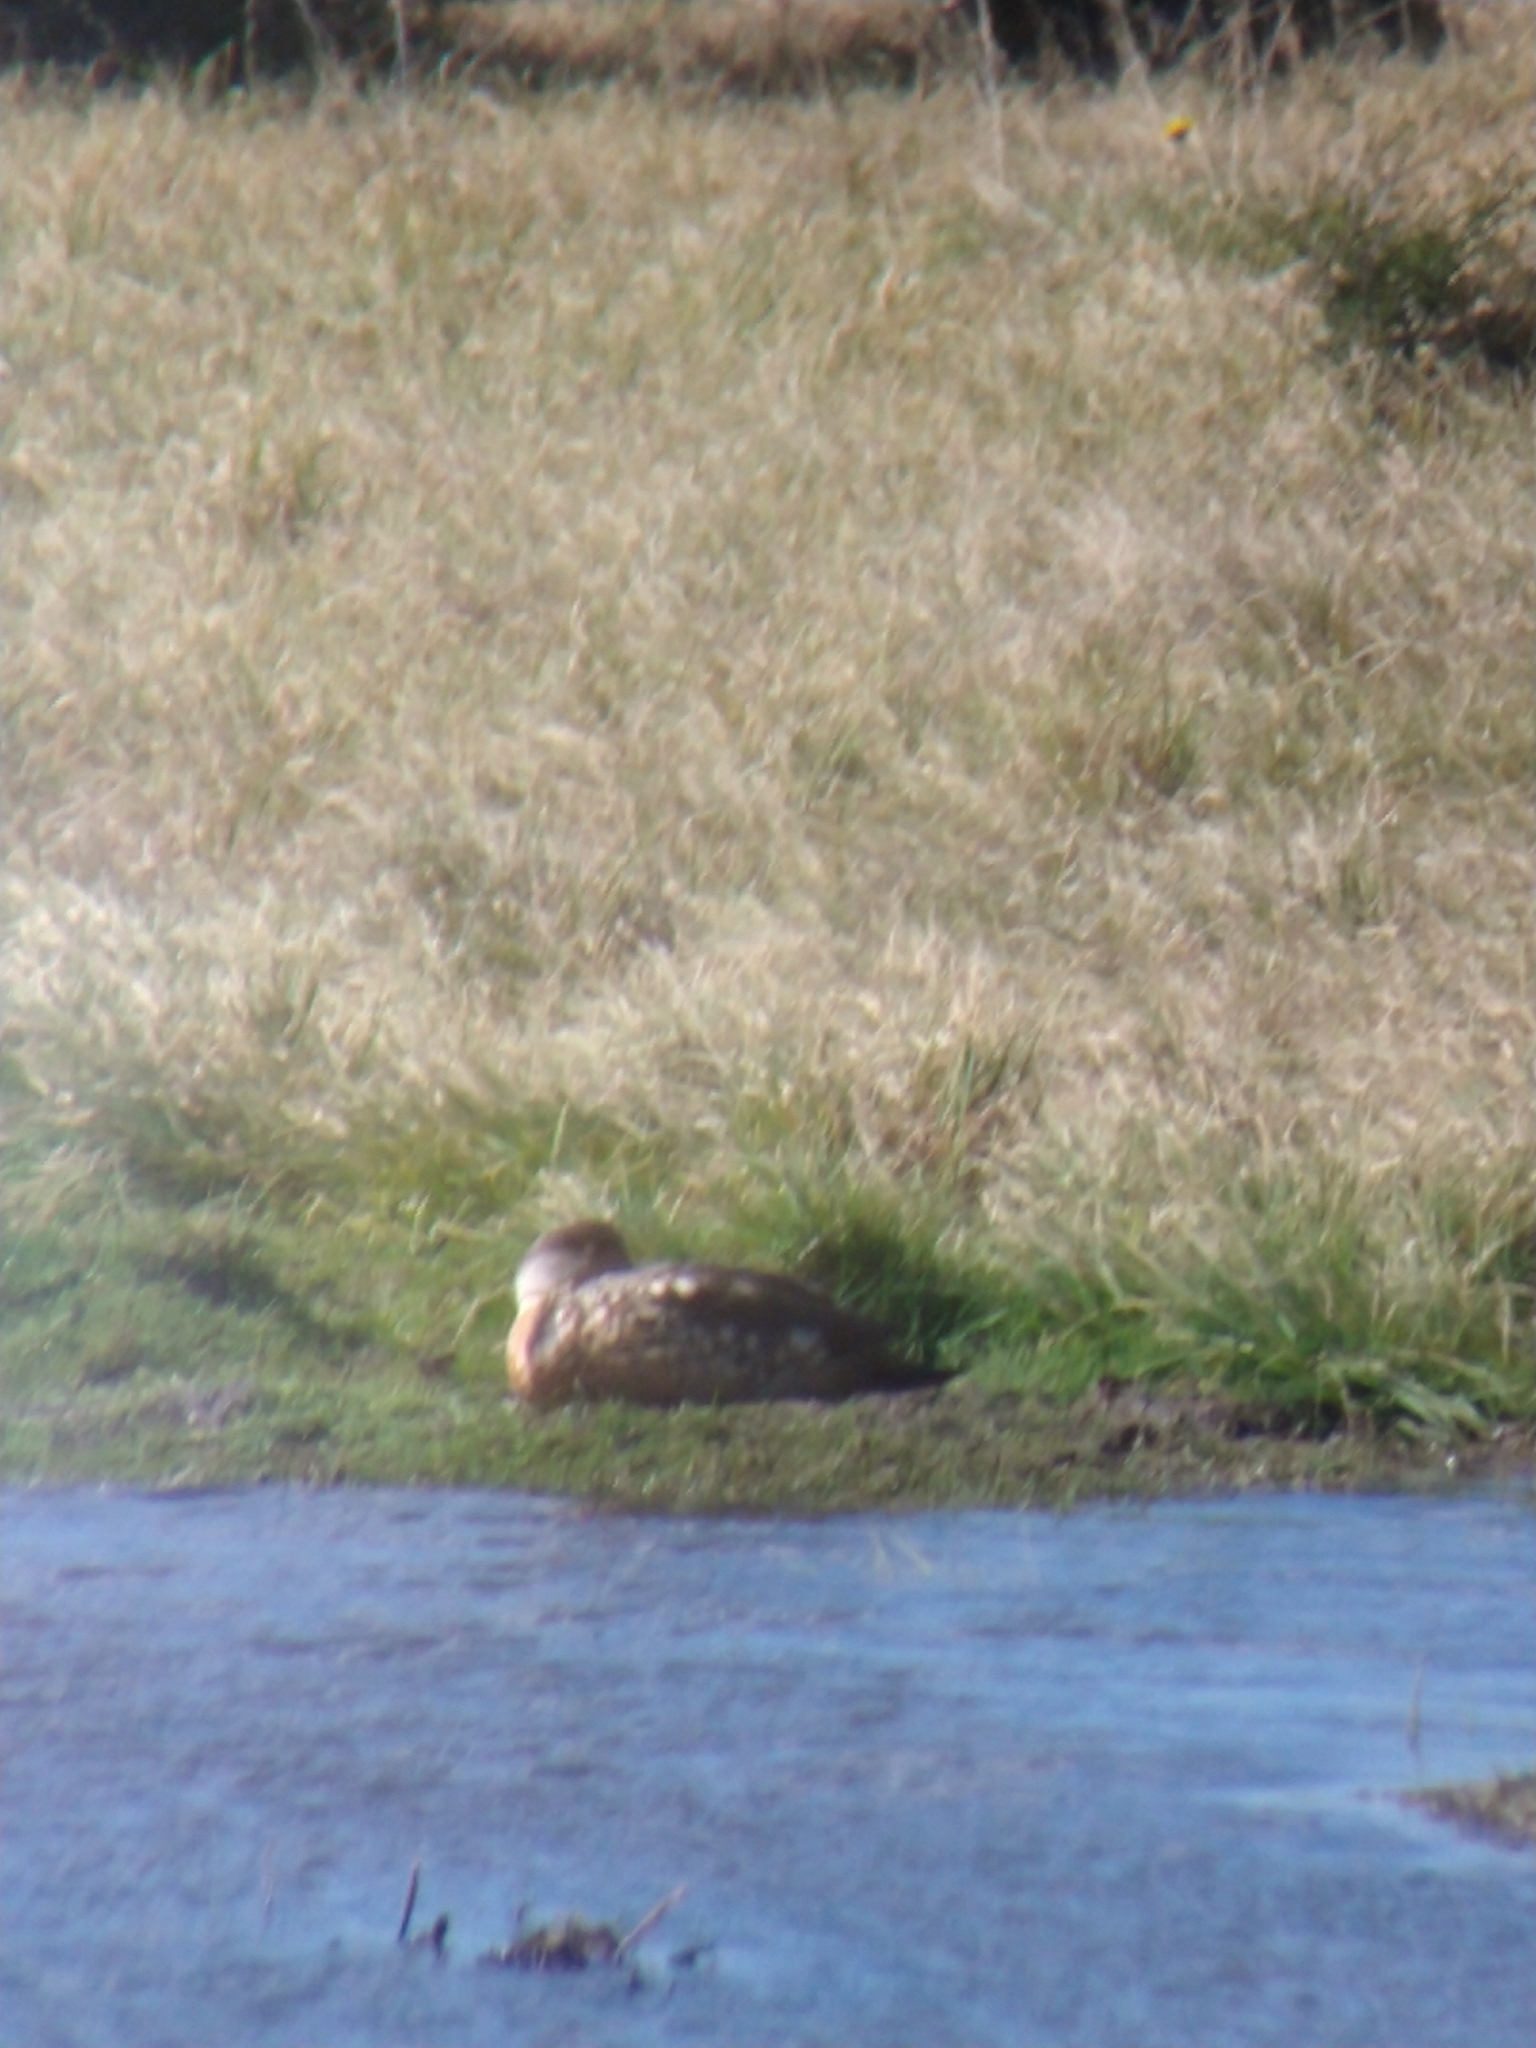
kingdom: Animalia
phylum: Chordata
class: Aves
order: Anseriformes
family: Anatidae
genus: Lophonetta
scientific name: Lophonetta specularioides
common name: Crested duck
